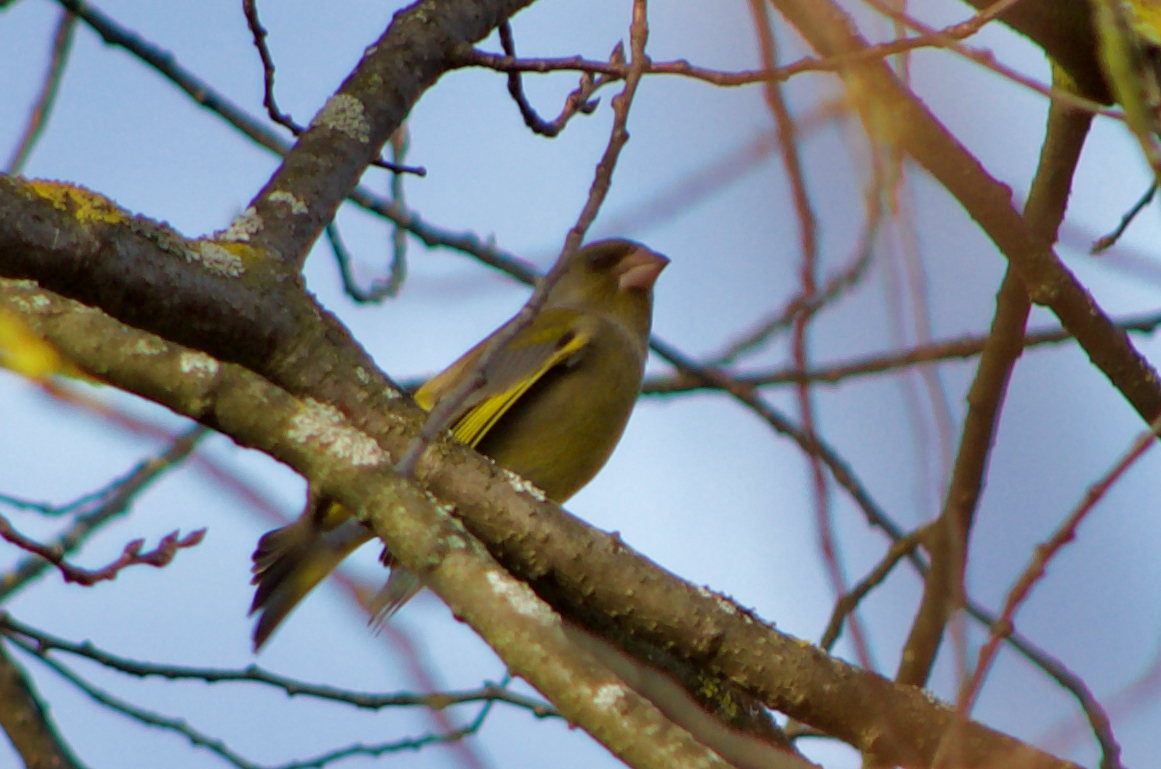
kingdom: Plantae
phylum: Tracheophyta
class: Liliopsida
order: Poales
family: Poaceae
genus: Chloris
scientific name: Chloris chloris
